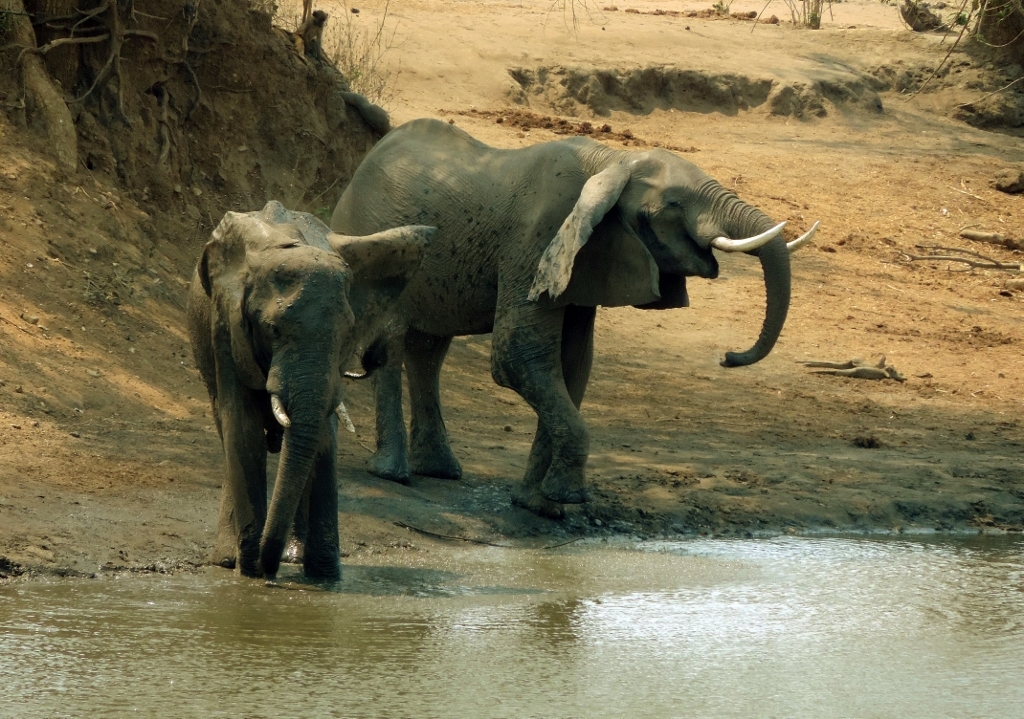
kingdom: Animalia
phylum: Chordata
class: Mammalia
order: Proboscidea
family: Elephantidae
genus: Loxodonta
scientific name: Loxodonta africana
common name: African elephant
